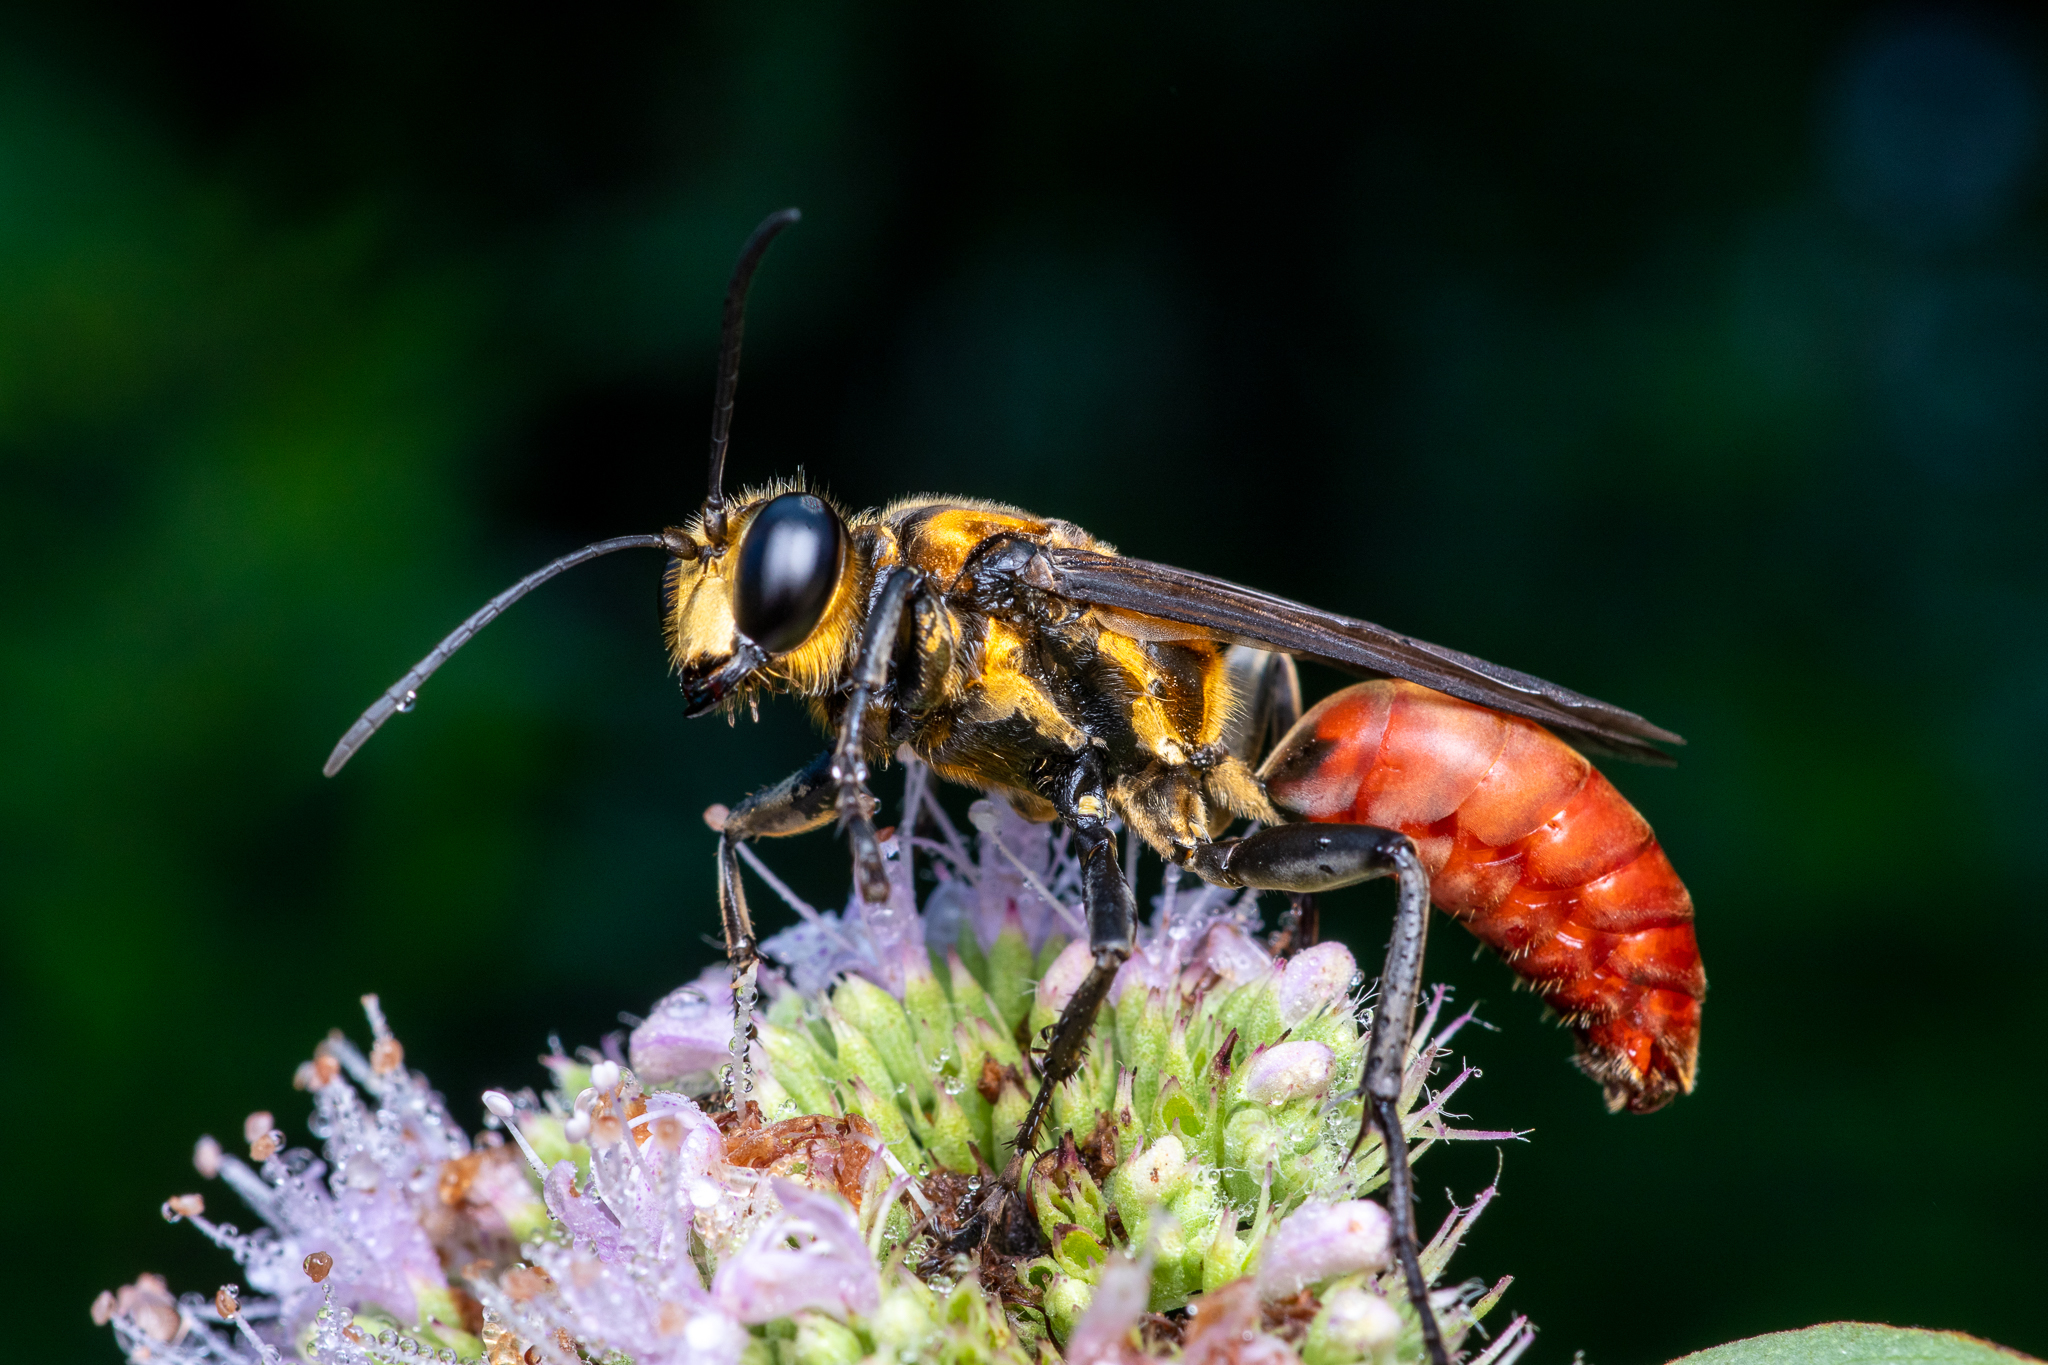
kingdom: Animalia
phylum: Arthropoda
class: Insecta
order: Hymenoptera
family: Sphecidae
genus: Sphex
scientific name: Sphex habenus
